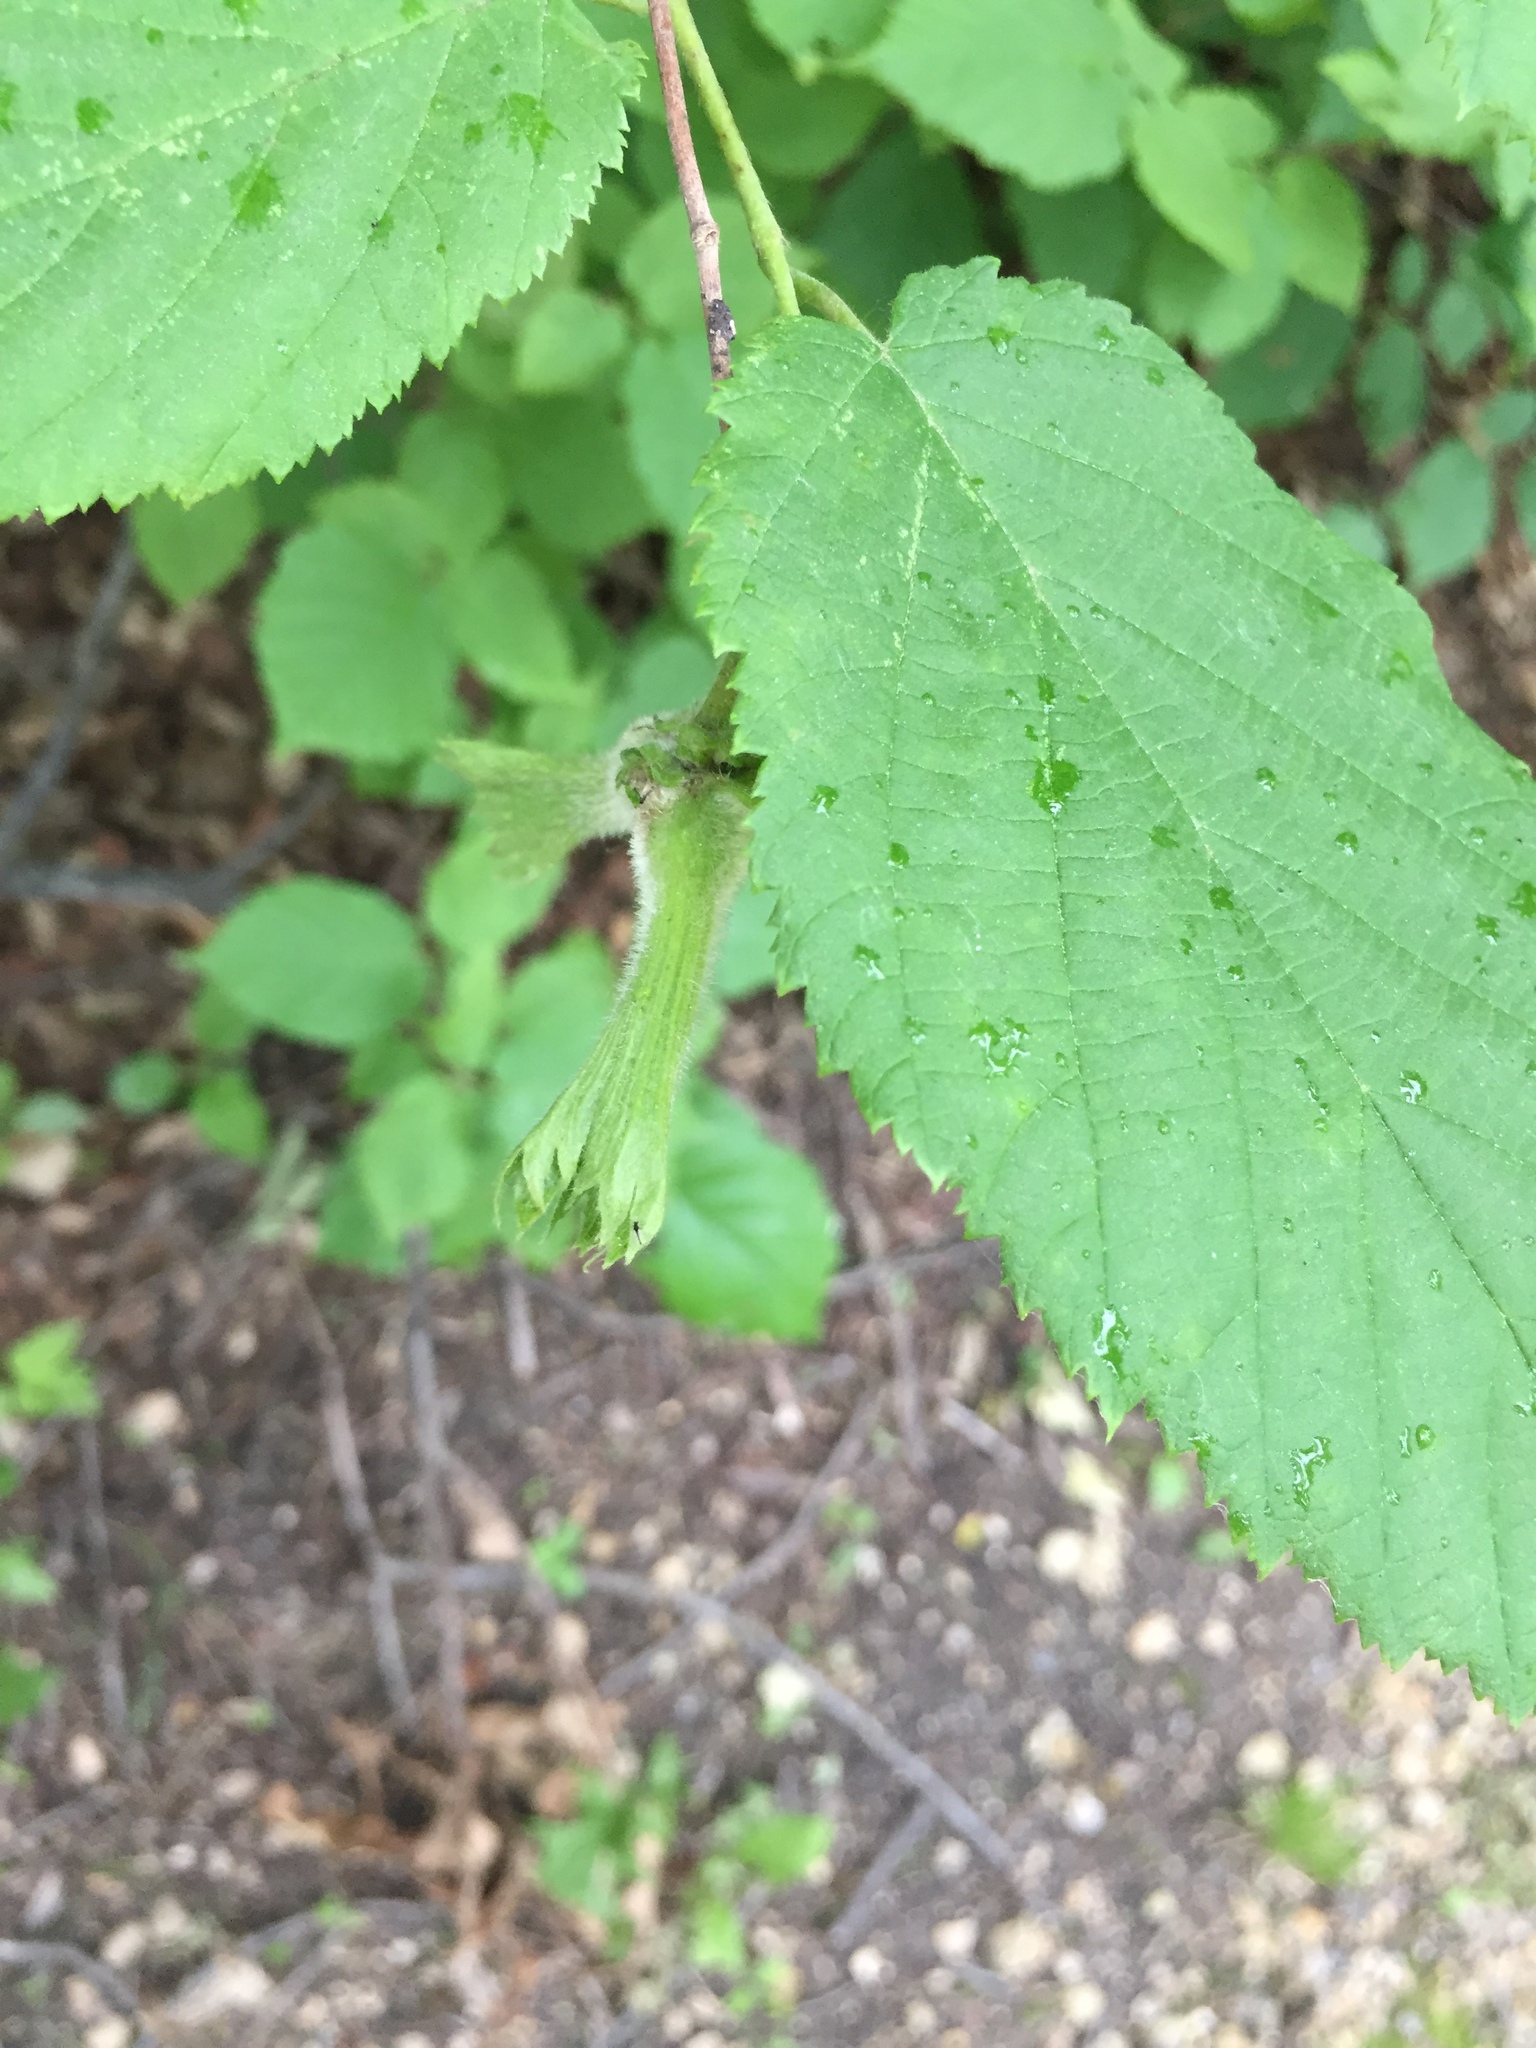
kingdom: Plantae
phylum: Tracheophyta
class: Magnoliopsida
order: Fagales
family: Betulaceae
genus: Corylus
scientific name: Corylus cornuta
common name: Beaked hazel
